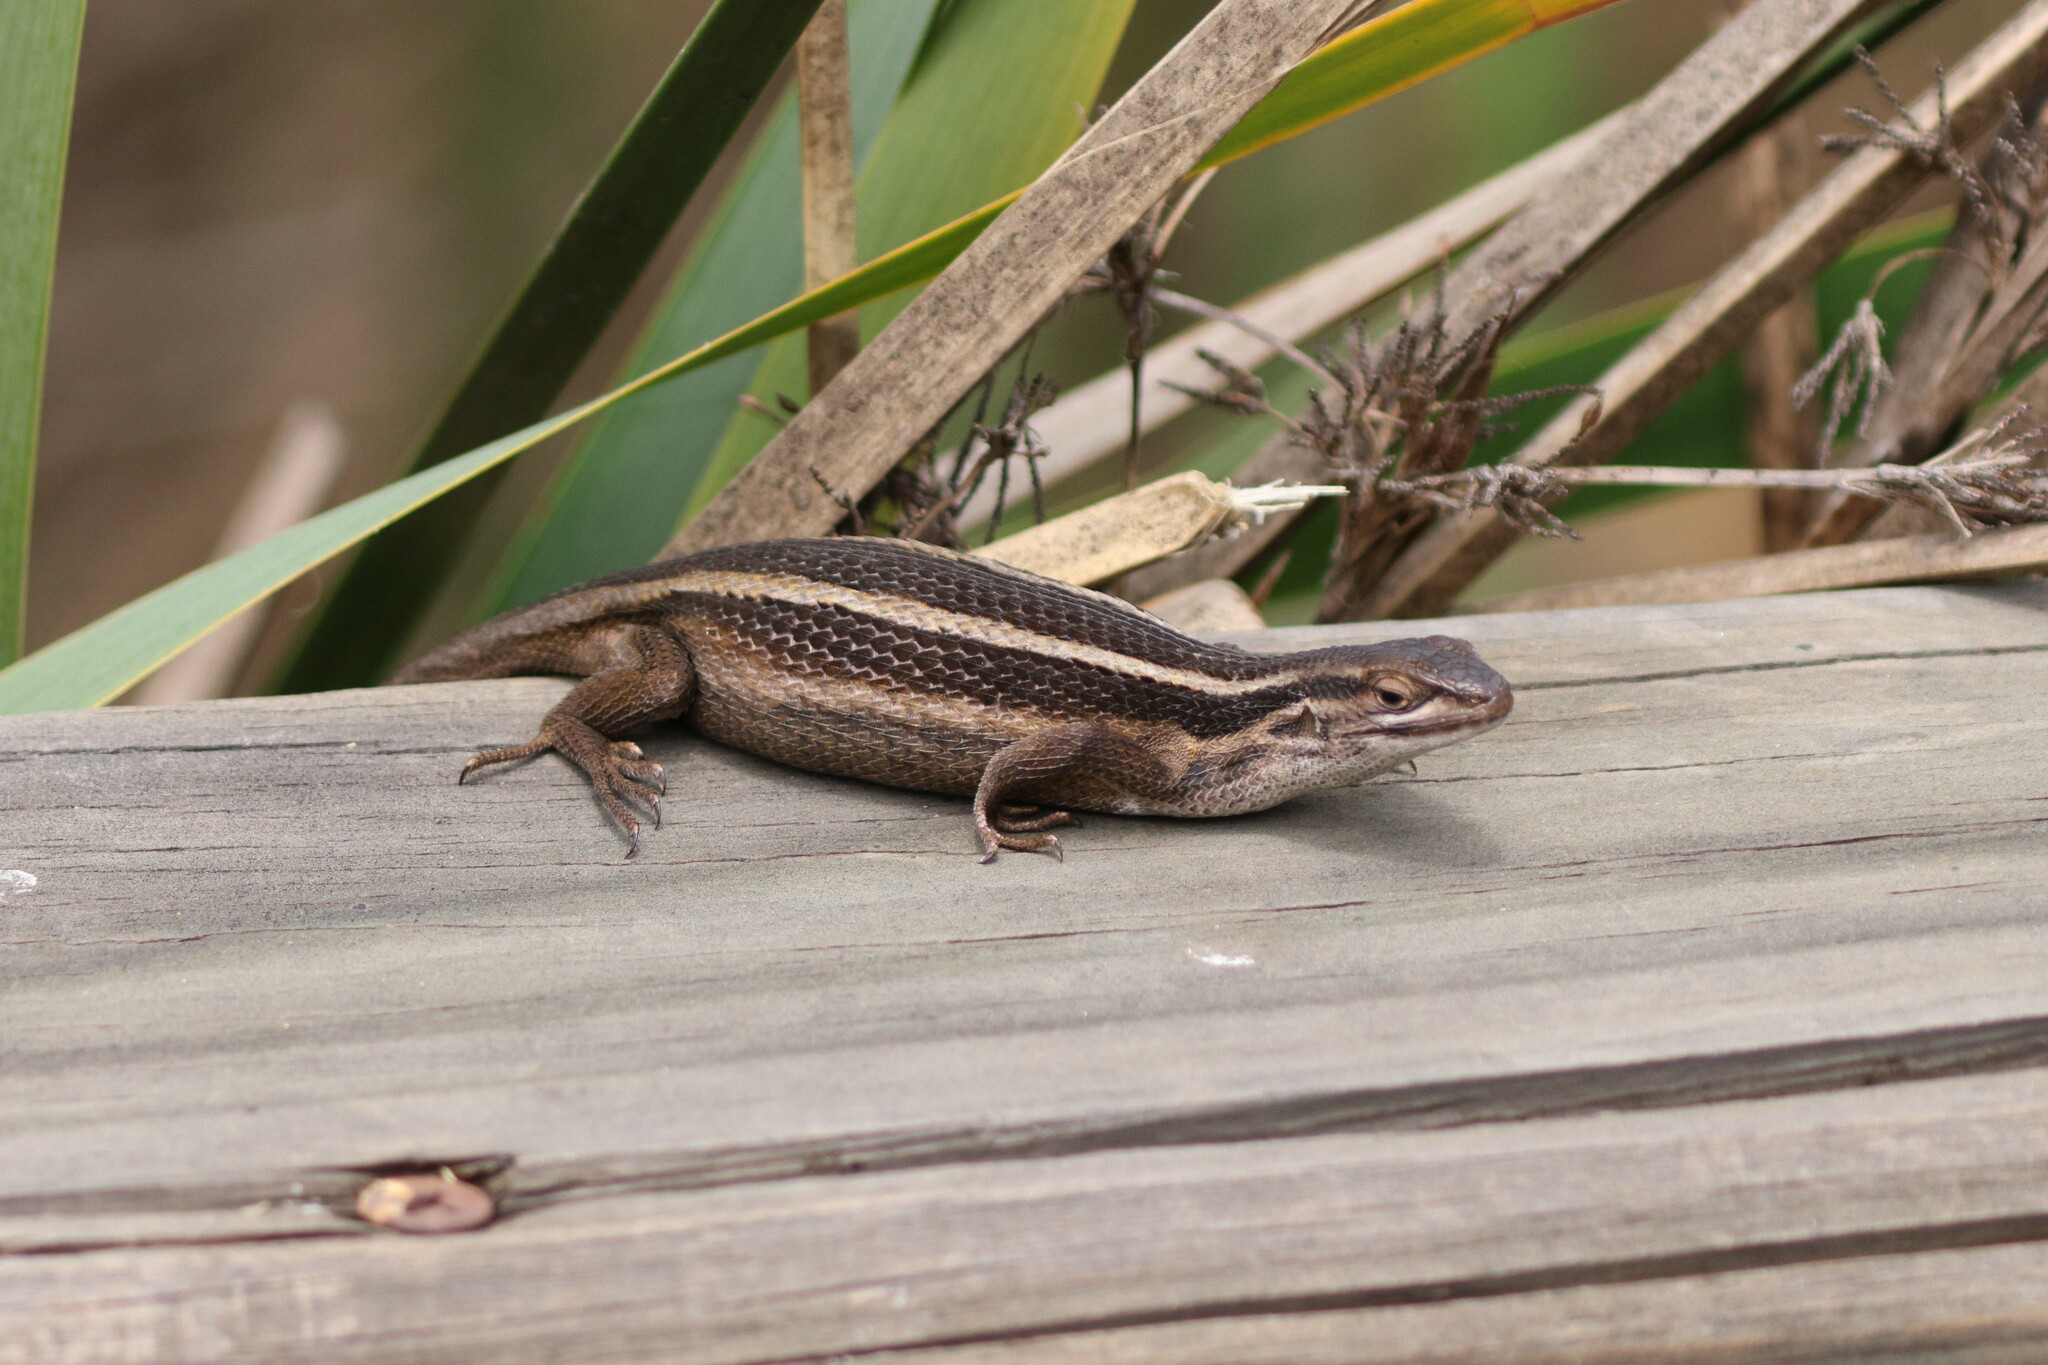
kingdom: Animalia
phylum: Chordata
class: Squamata
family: Liolaemidae
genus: Liolaemus
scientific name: Liolaemus gravenhorstii
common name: Gravenhorst's tree iguana
